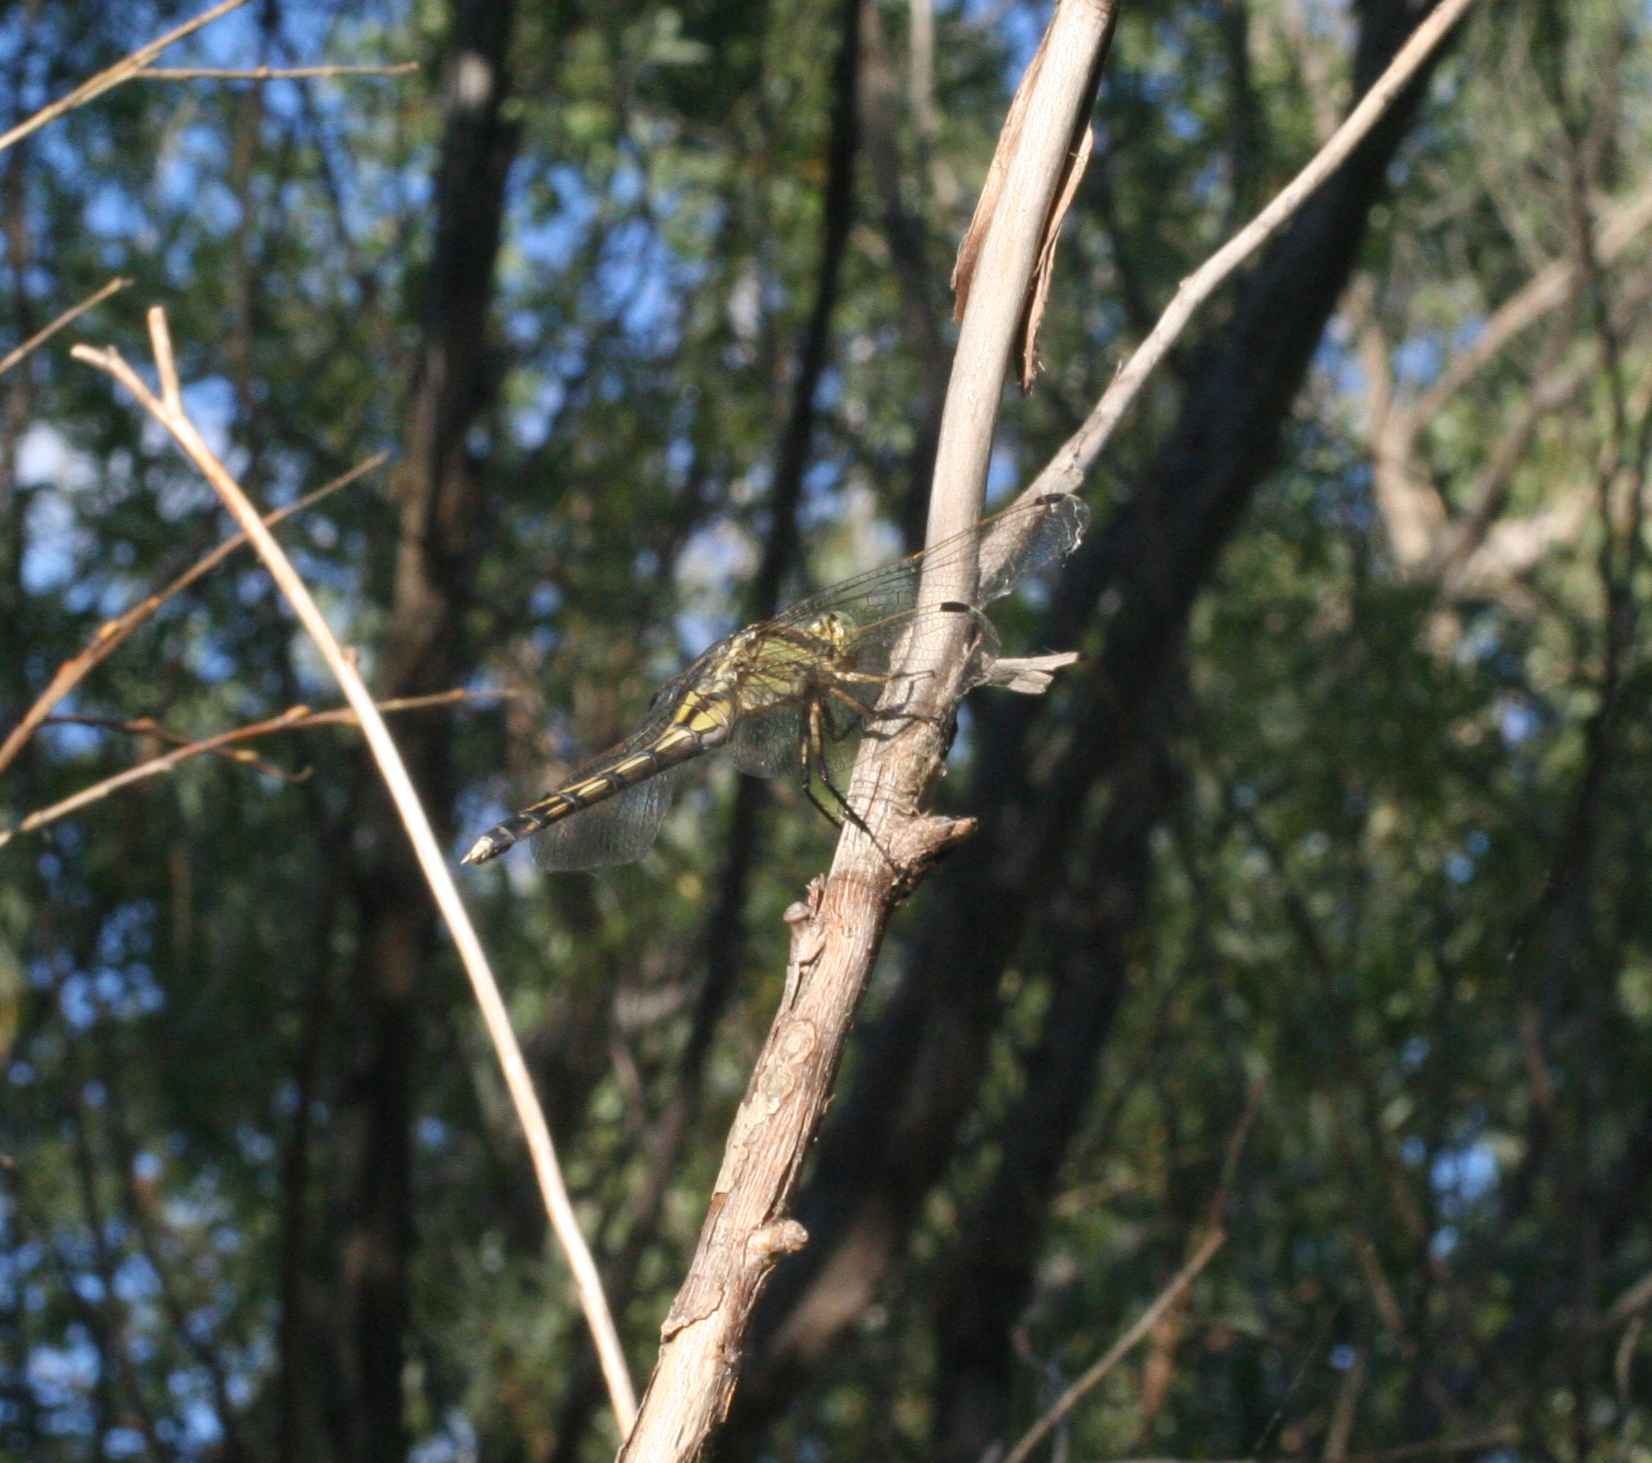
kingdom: Animalia
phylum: Arthropoda
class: Insecta
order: Odonata
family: Libellulidae
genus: Orthetrum
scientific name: Orthetrum albistylum
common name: White-tailed skimmer
